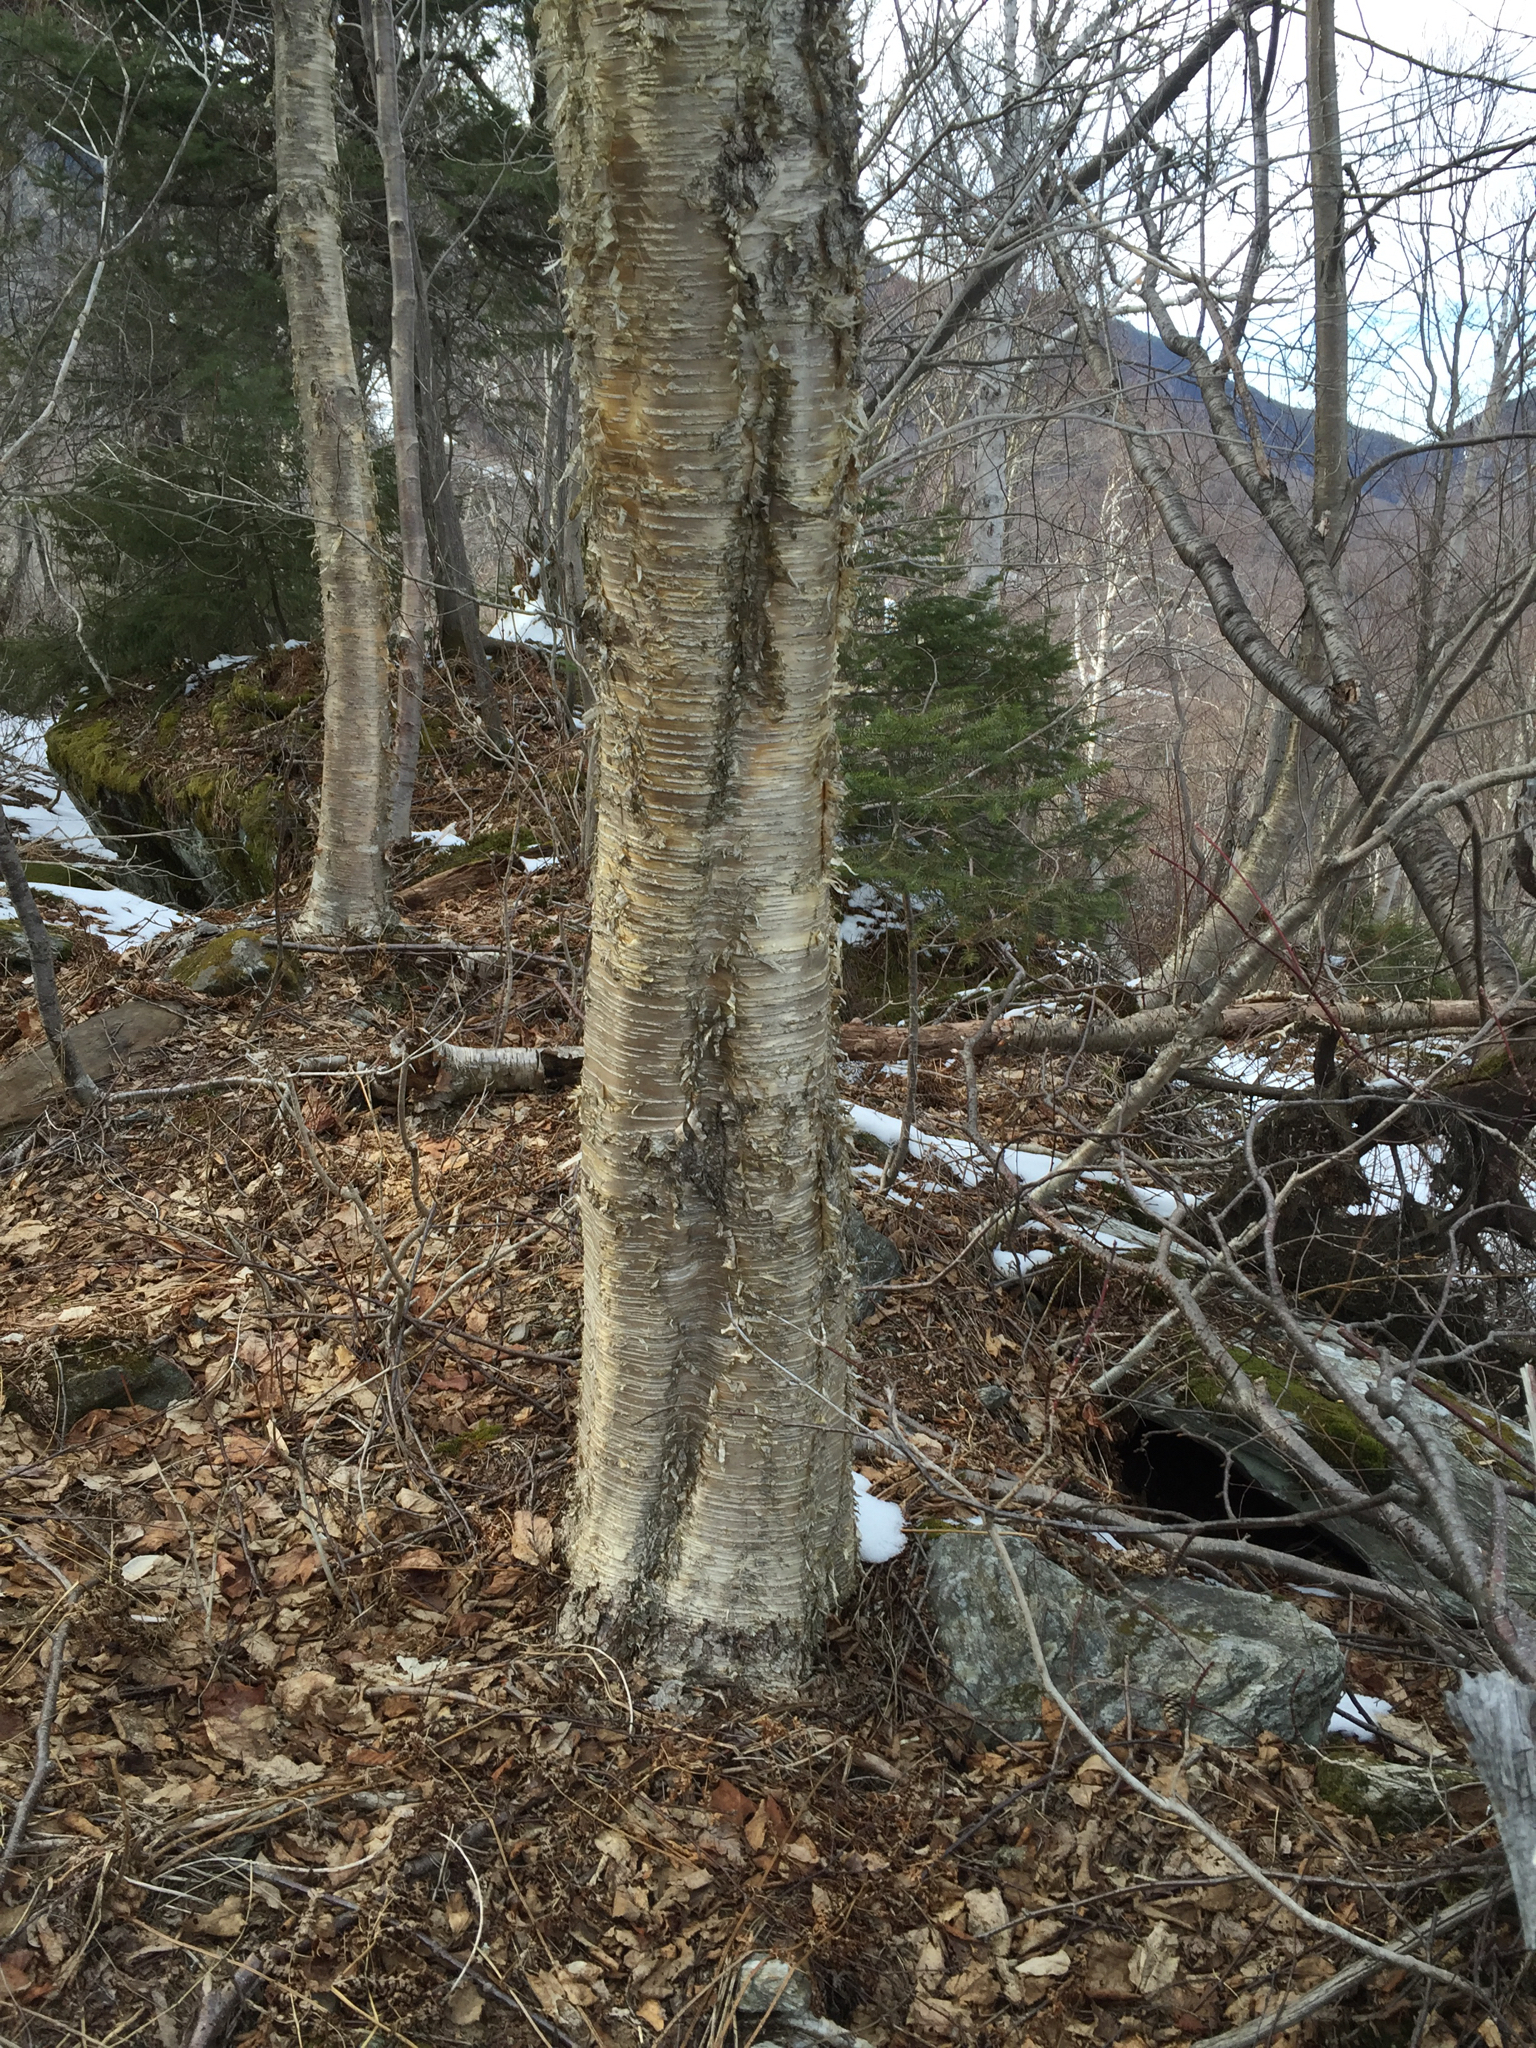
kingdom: Plantae
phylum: Tracheophyta
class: Magnoliopsida
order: Fagales
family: Betulaceae
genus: Betula
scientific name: Betula alleghaniensis
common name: Yellow birch
